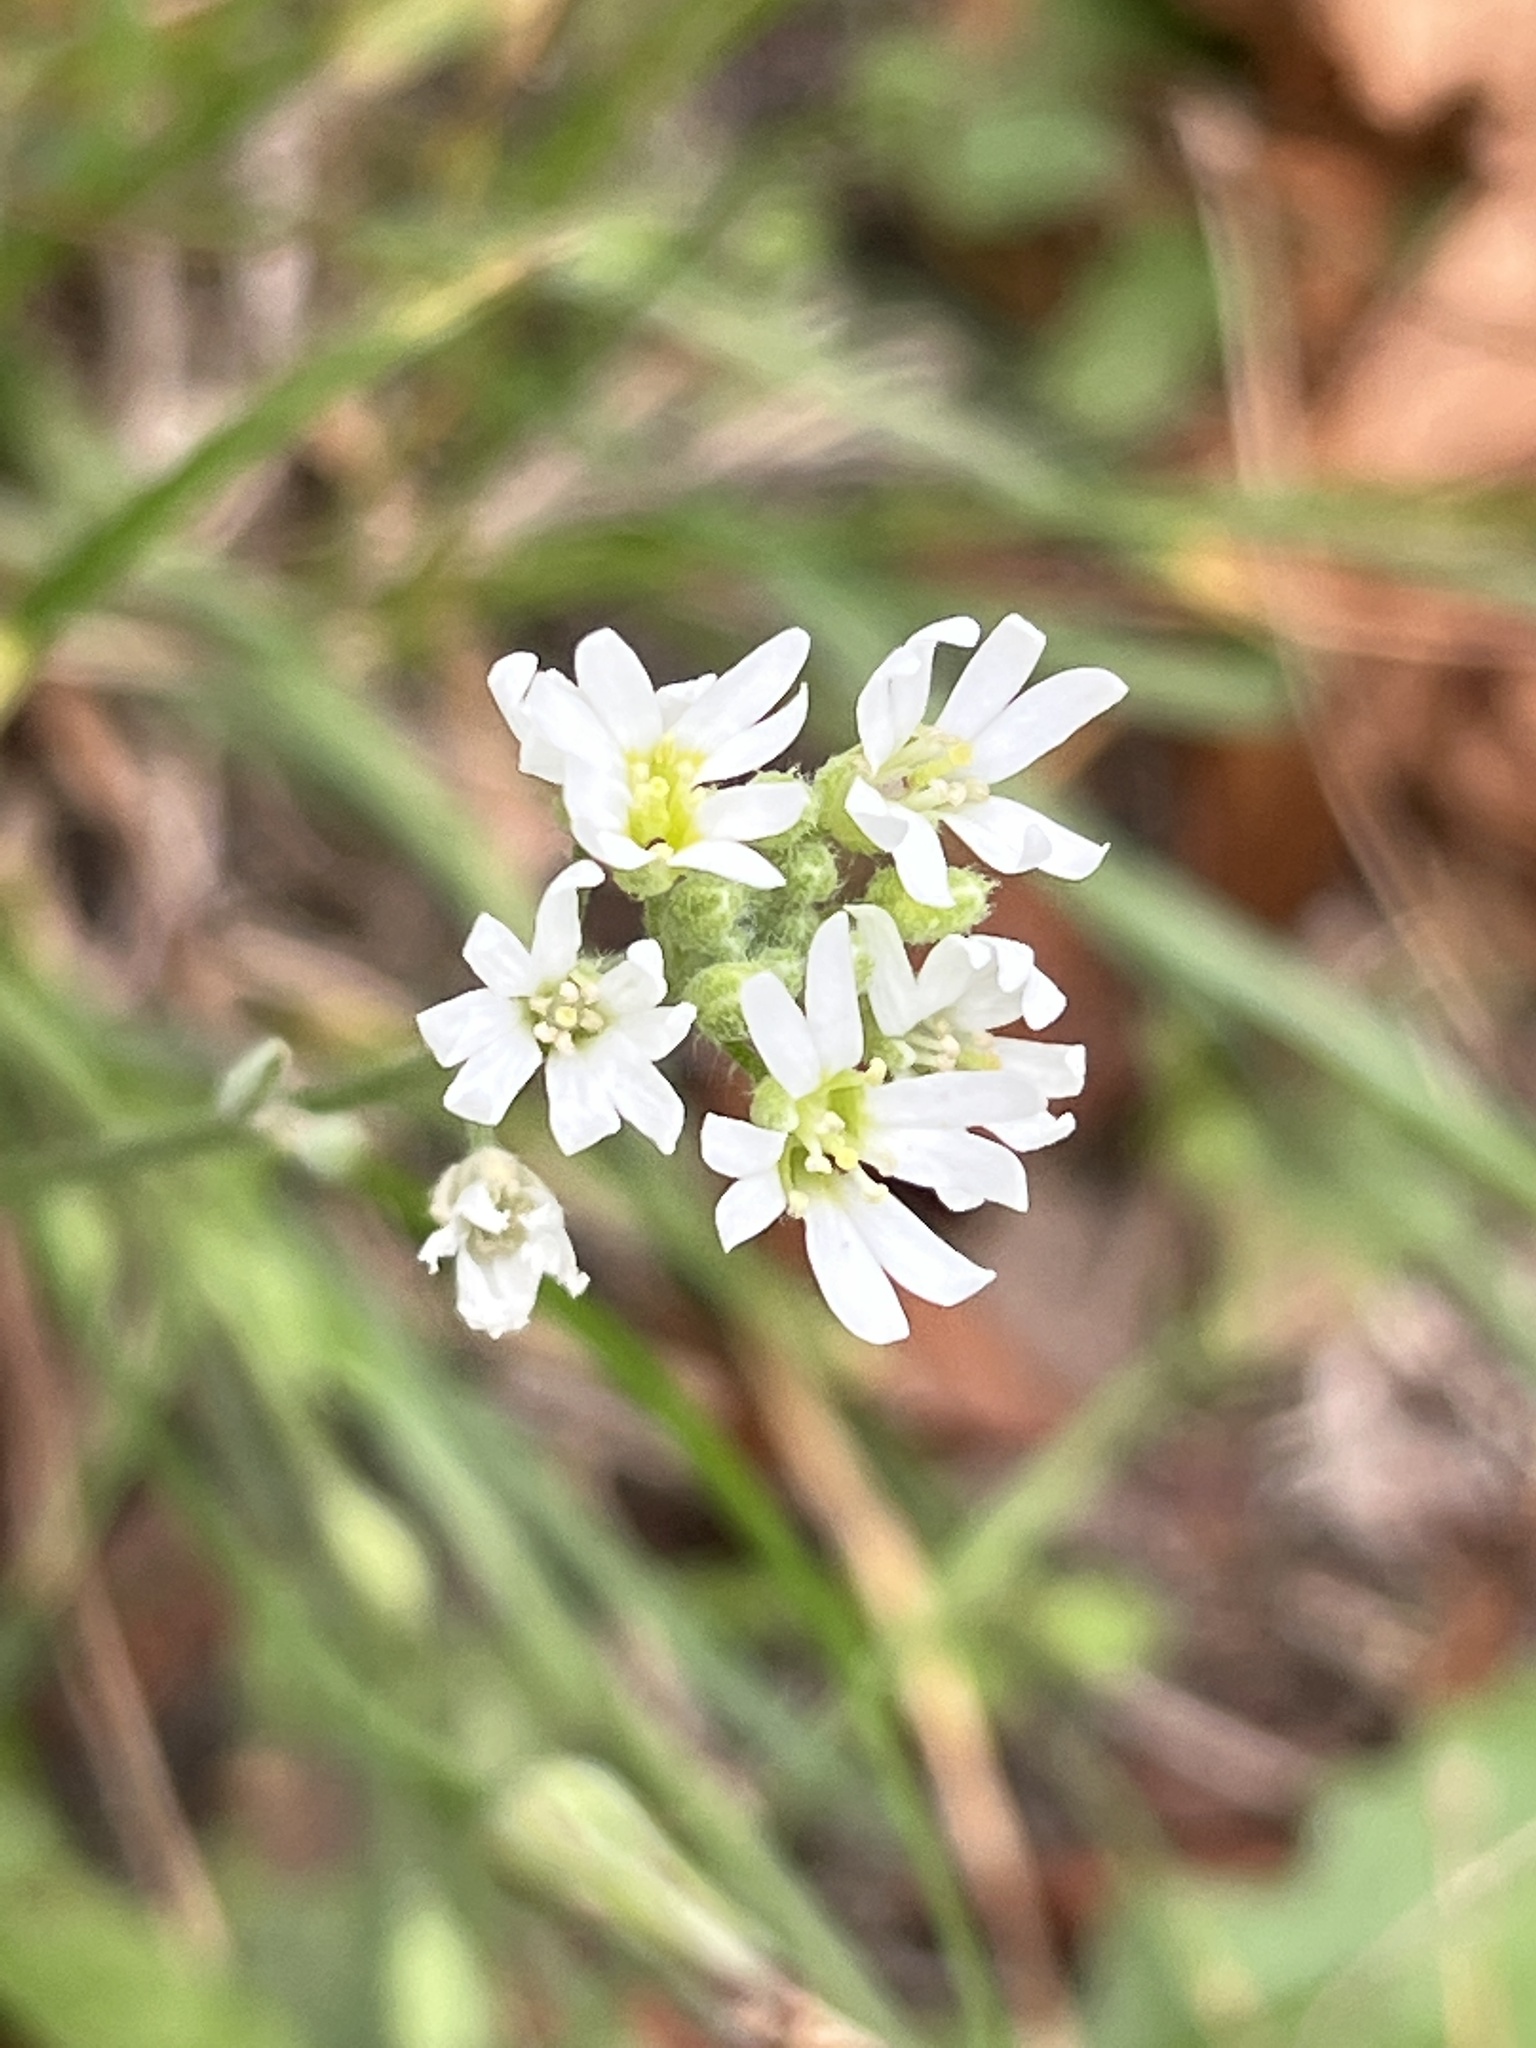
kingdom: Plantae
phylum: Tracheophyta
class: Magnoliopsida
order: Brassicales
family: Brassicaceae
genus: Berteroa
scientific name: Berteroa incana
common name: Hoary alison
